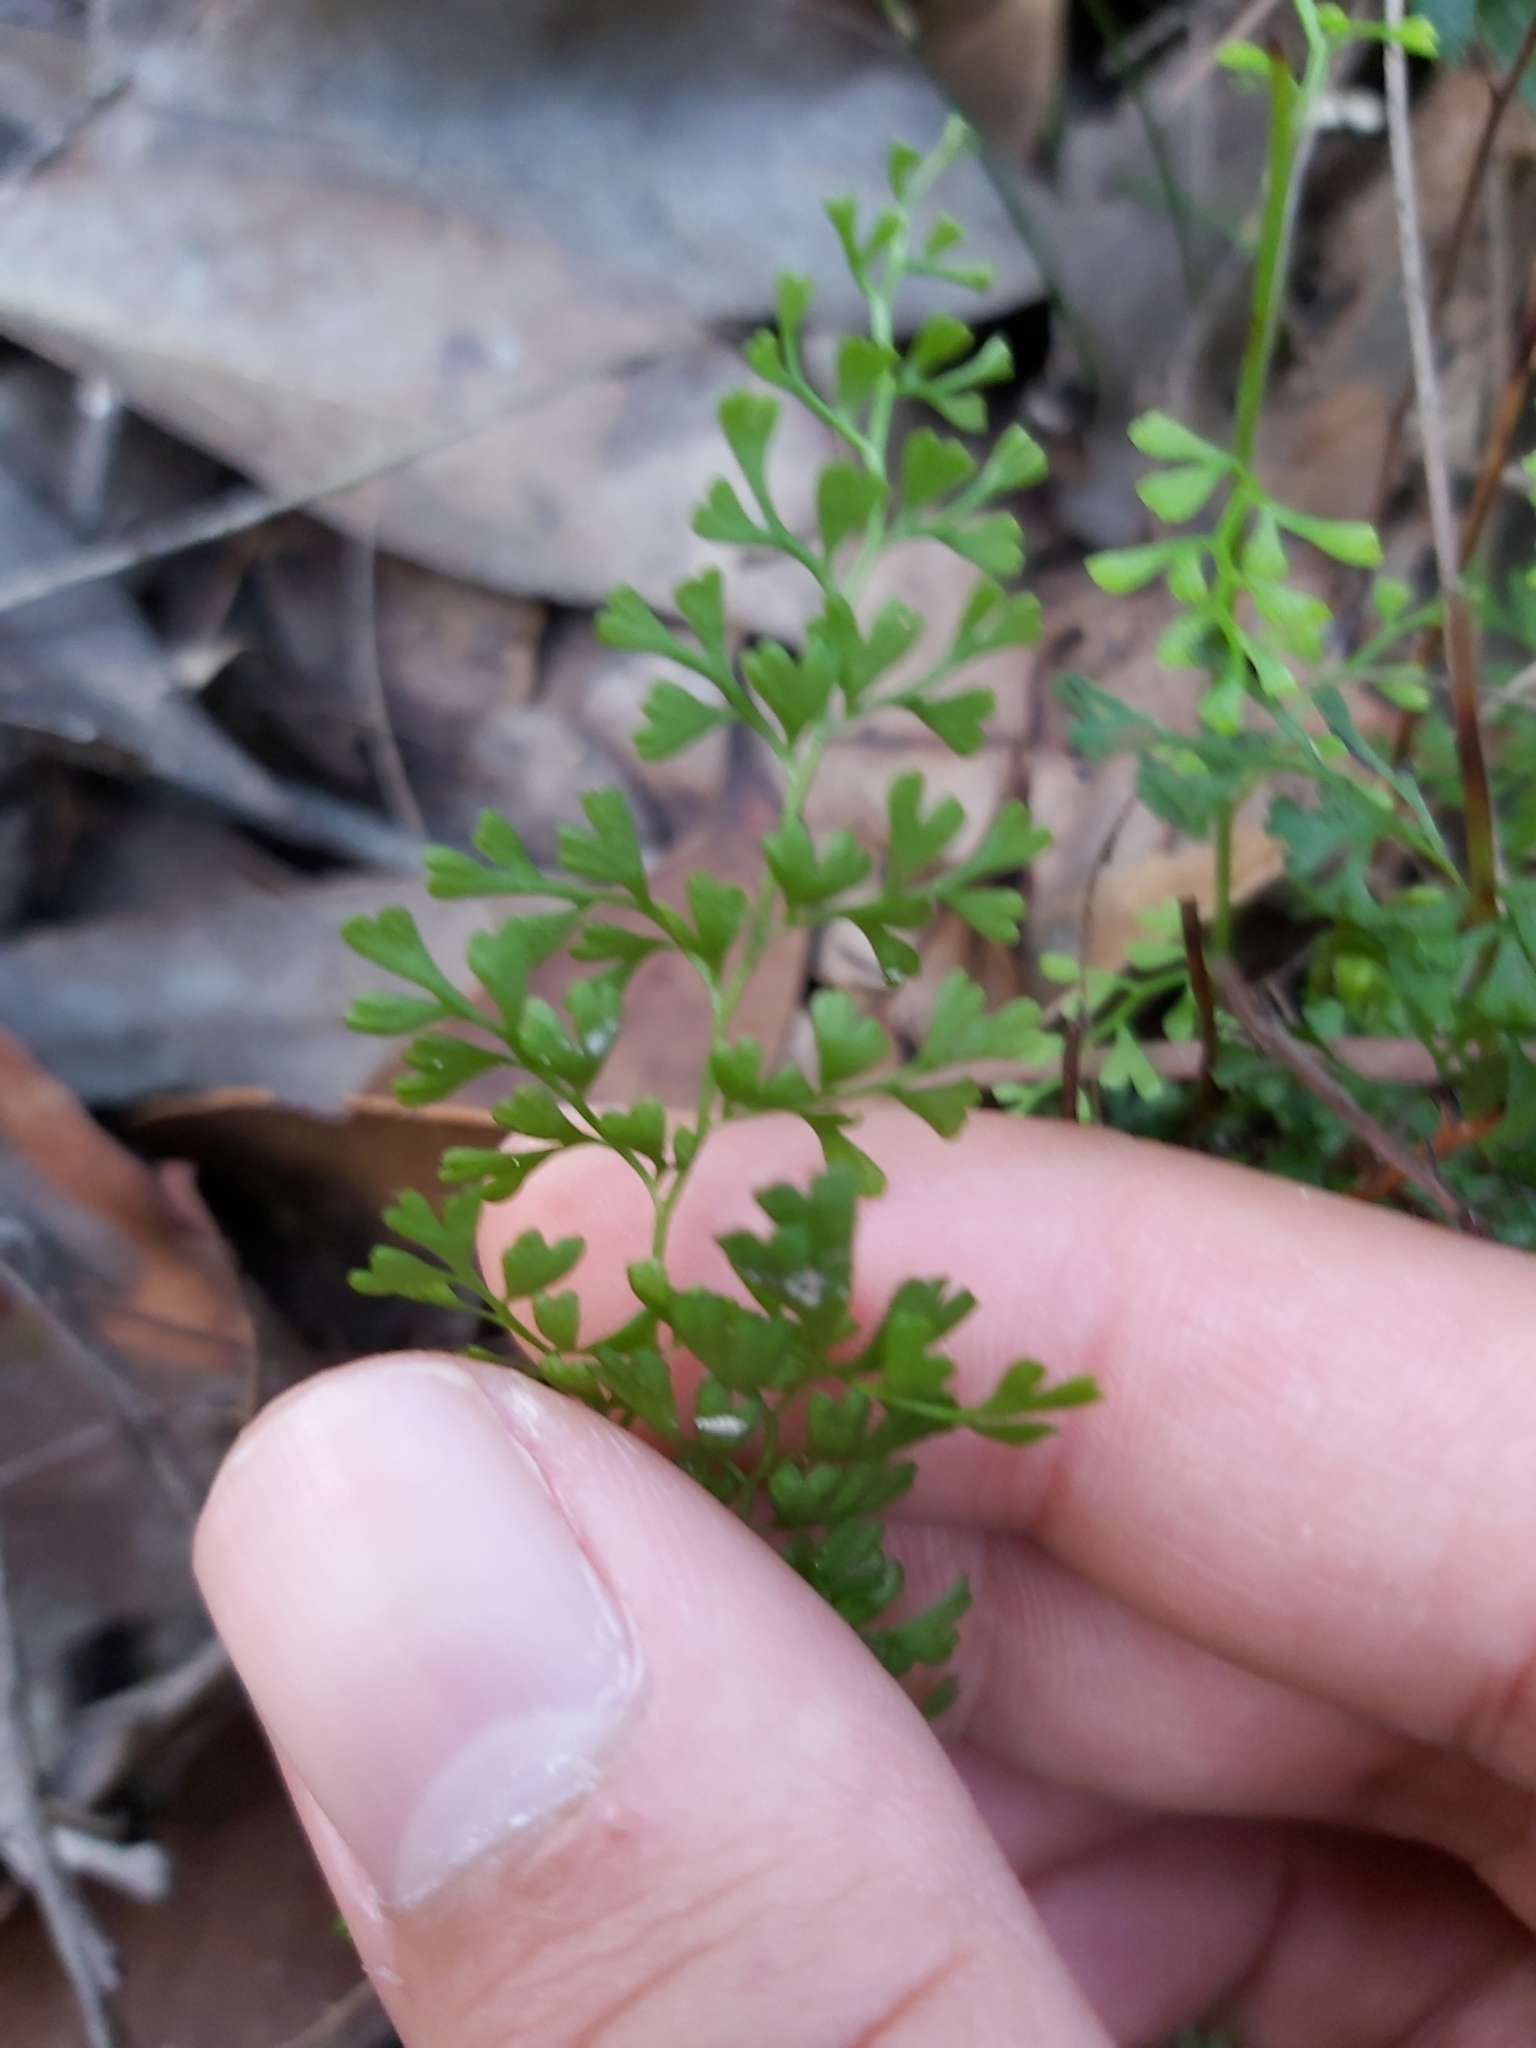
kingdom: Plantae
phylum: Tracheophyta
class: Polypodiopsida
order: Polypodiales
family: Lindsaeaceae
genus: Lindsaea
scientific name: Lindsaea microphylla
